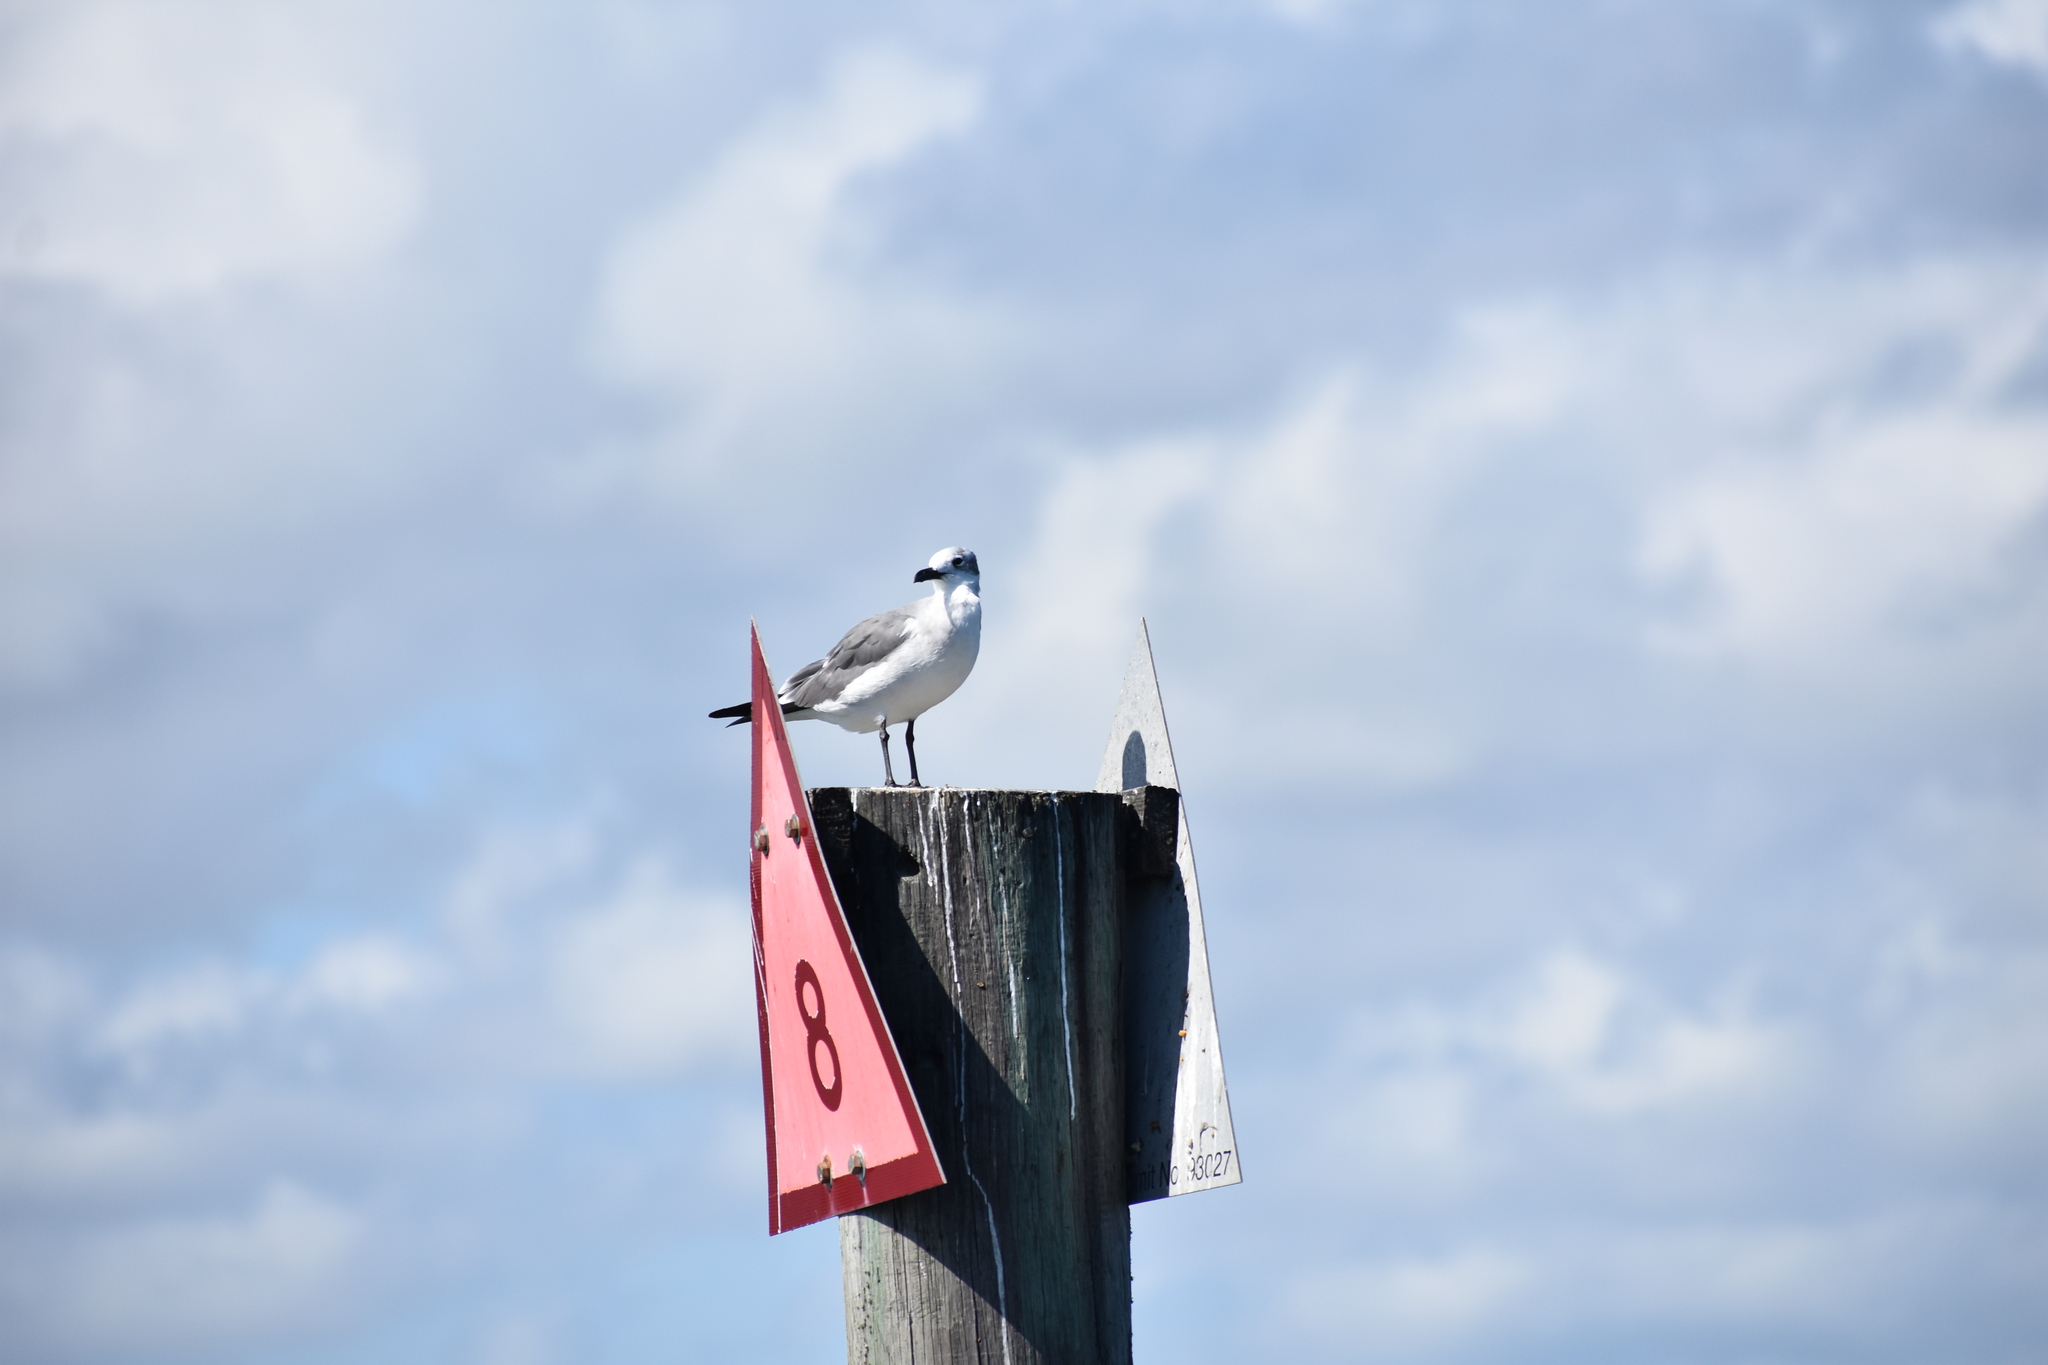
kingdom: Animalia
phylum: Chordata
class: Aves
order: Charadriiformes
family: Laridae
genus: Leucophaeus
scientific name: Leucophaeus atricilla
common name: Laughing gull
